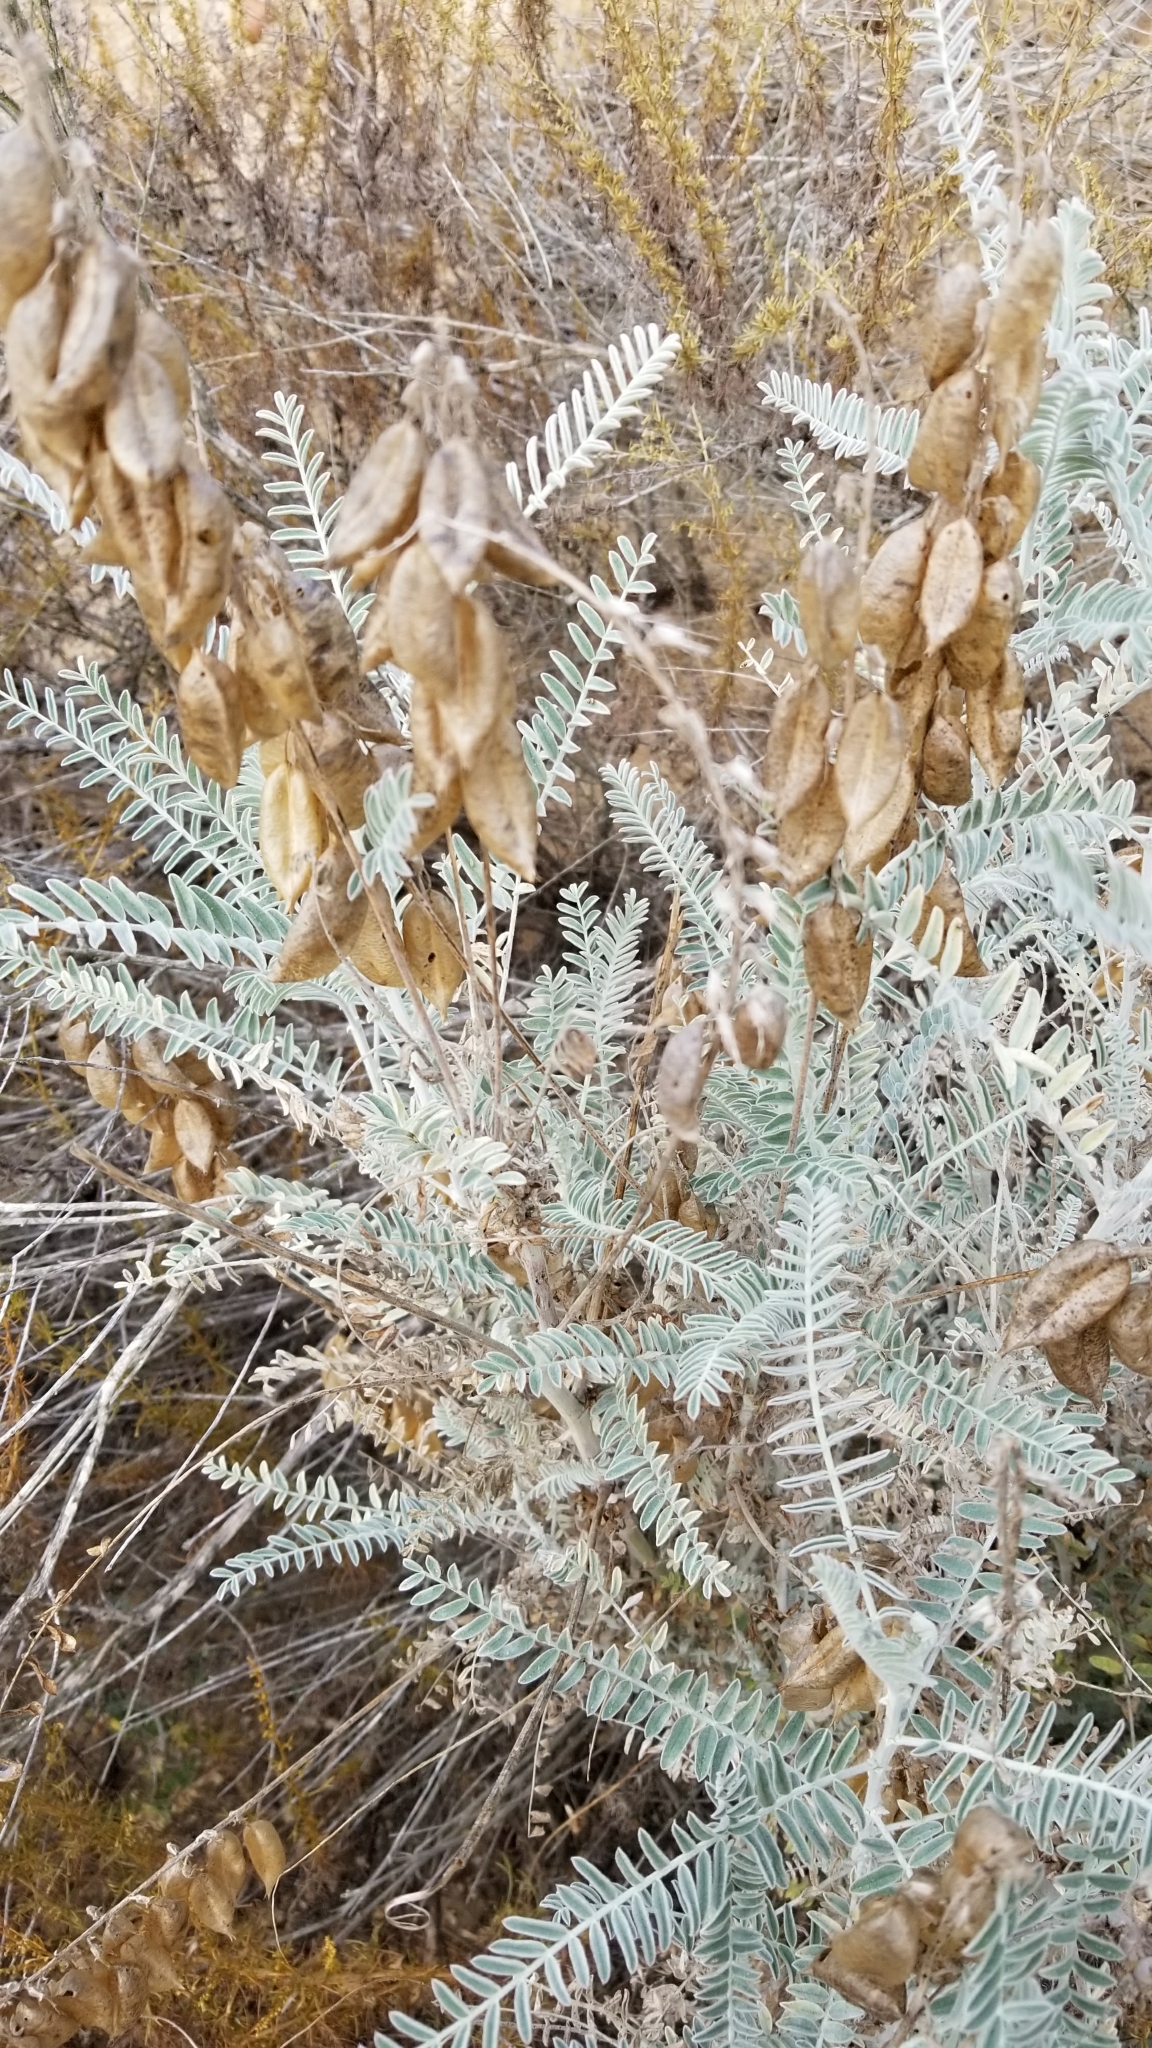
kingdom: Plantae
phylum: Tracheophyta
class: Magnoliopsida
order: Fabales
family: Fabaceae
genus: Astragalus
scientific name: Astragalus trichopodus
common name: Santa barbara milk-vetch
